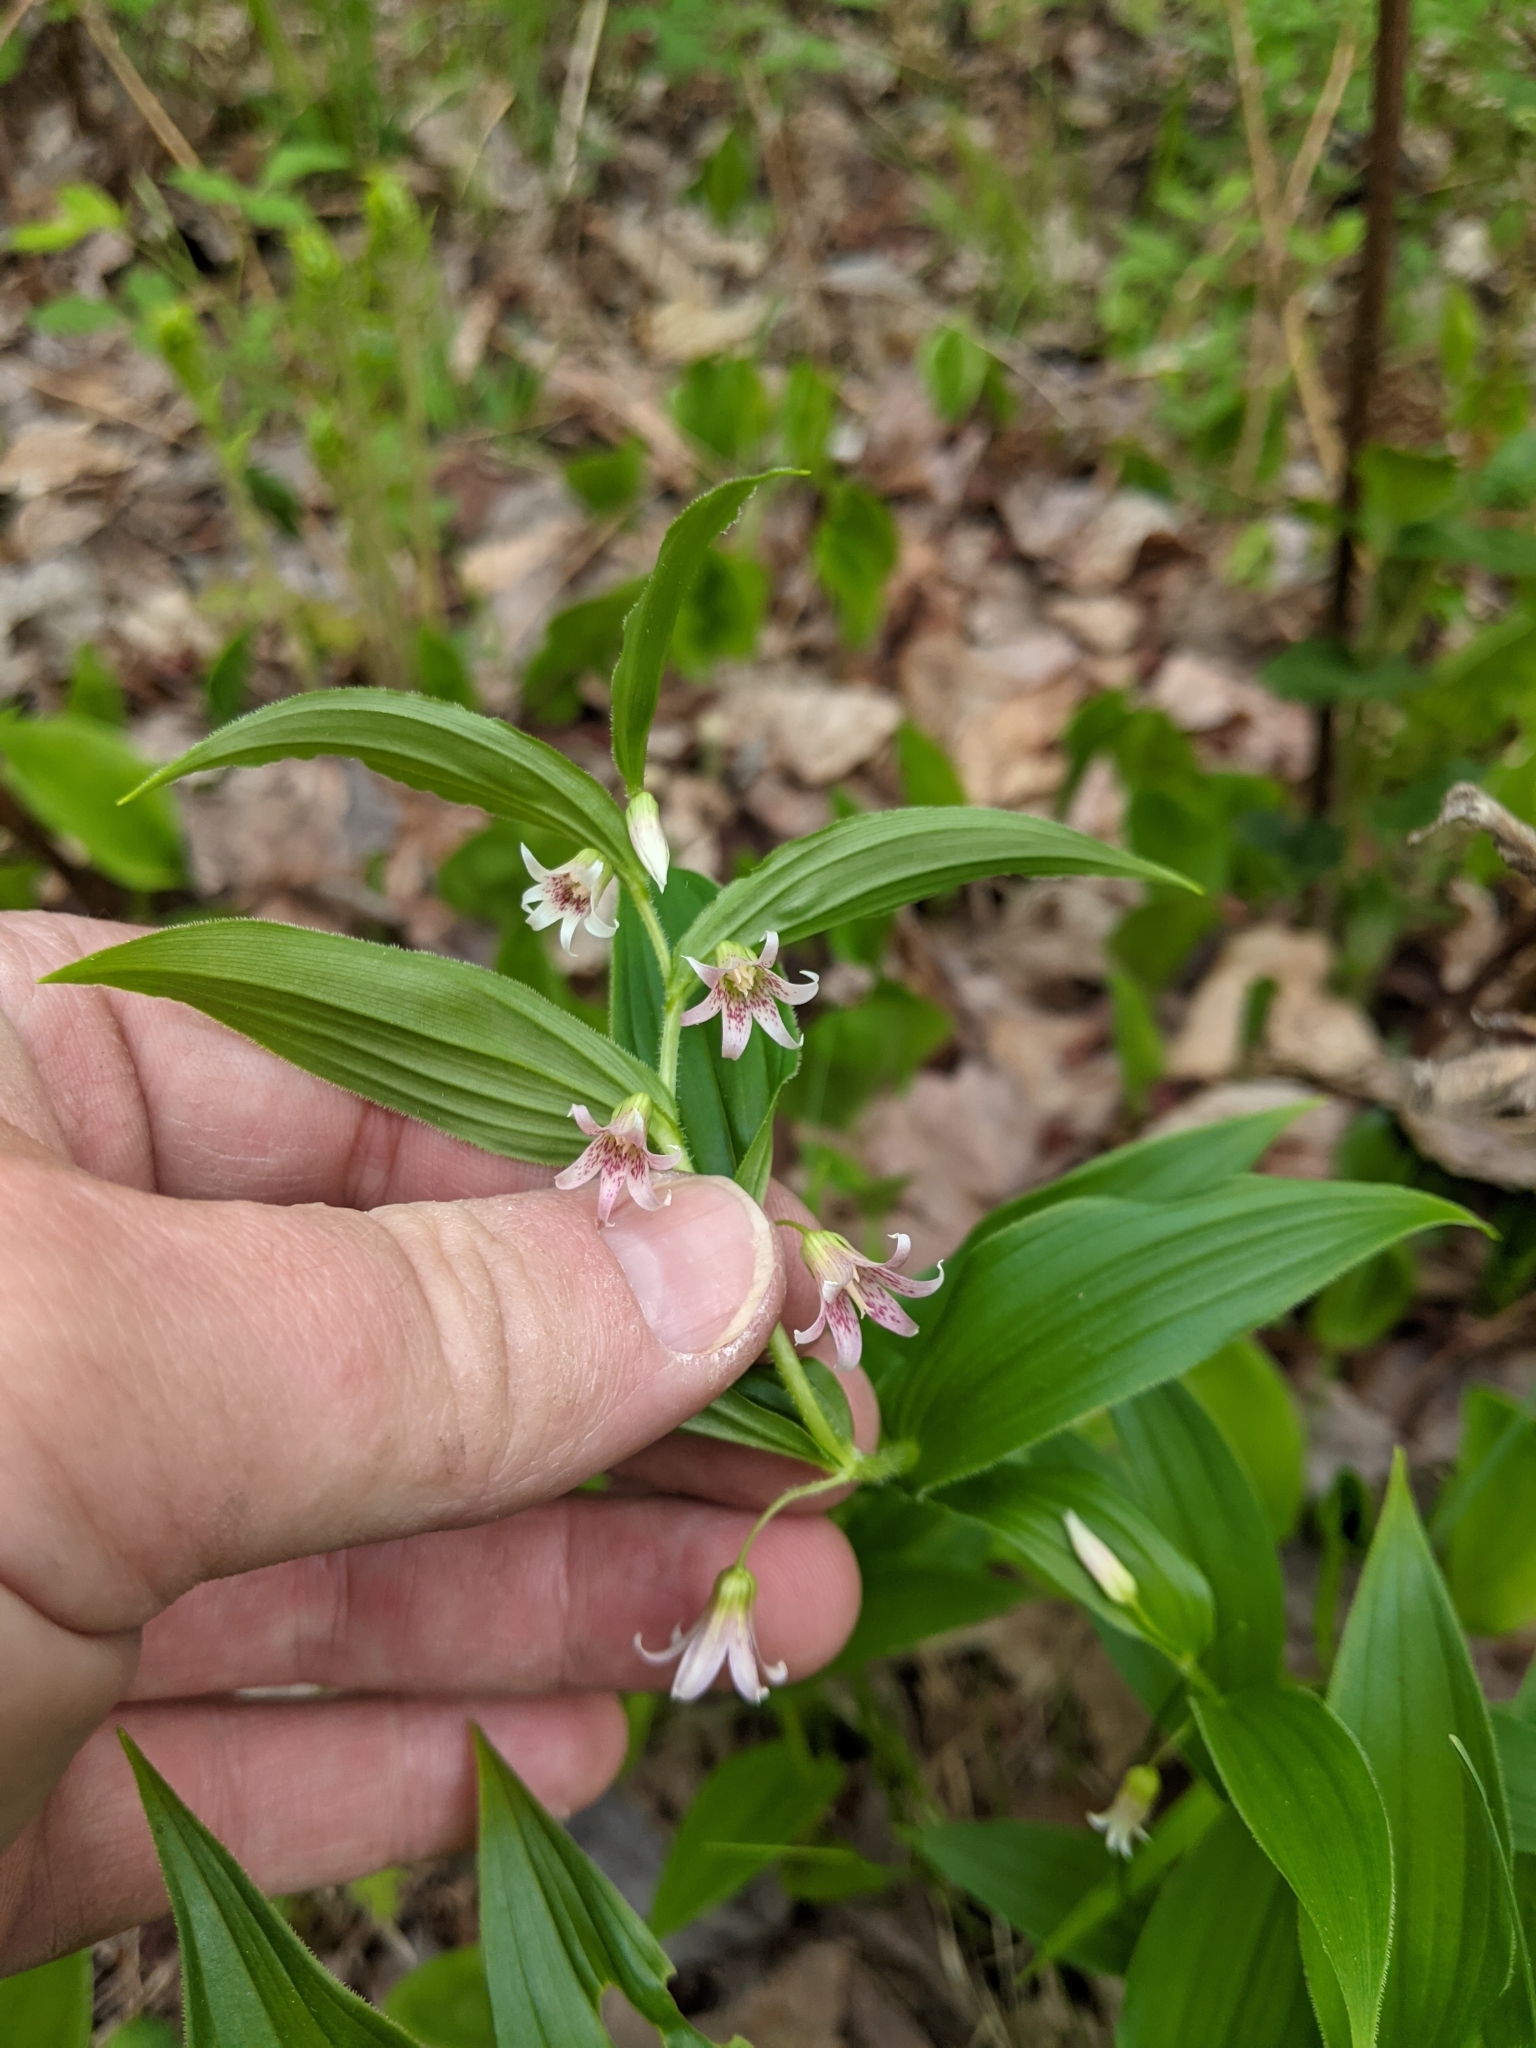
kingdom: Plantae
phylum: Tracheophyta
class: Liliopsida
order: Liliales
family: Liliaceae
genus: Streptopus
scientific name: Streptopus lanceolatus
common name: Rose mandarin
